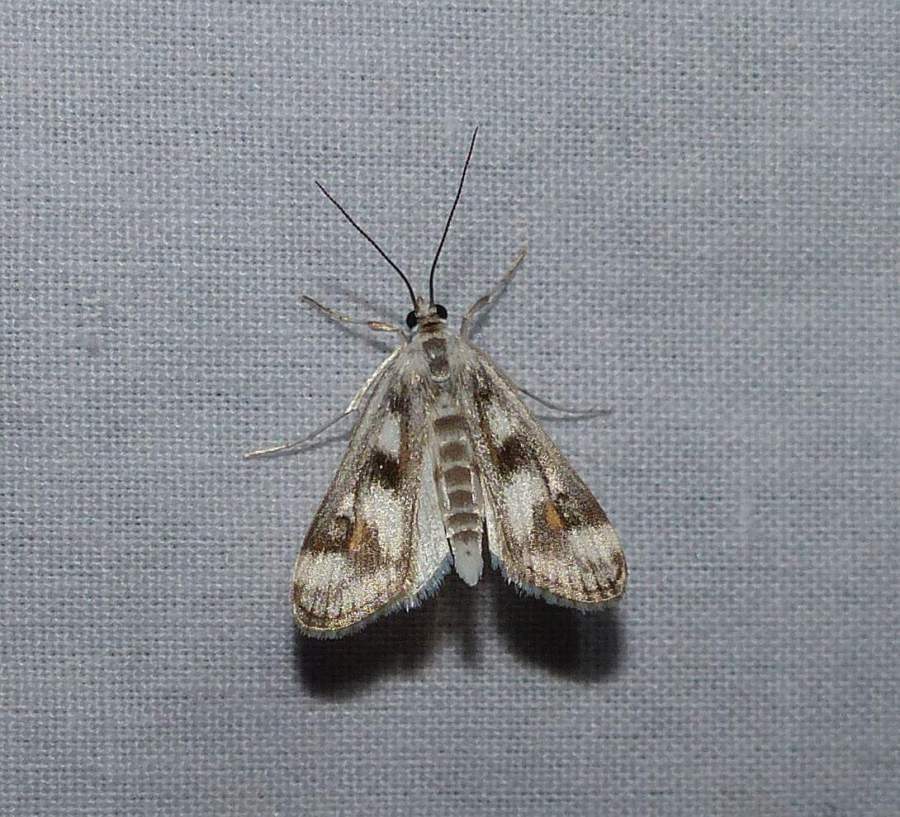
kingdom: Animalia
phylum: Arthropoda
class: Insecta
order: Lepidoptera
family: Crambidae
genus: Parapoynx
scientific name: Parapoynx maculalis
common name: Polymorphic pondweed moth
